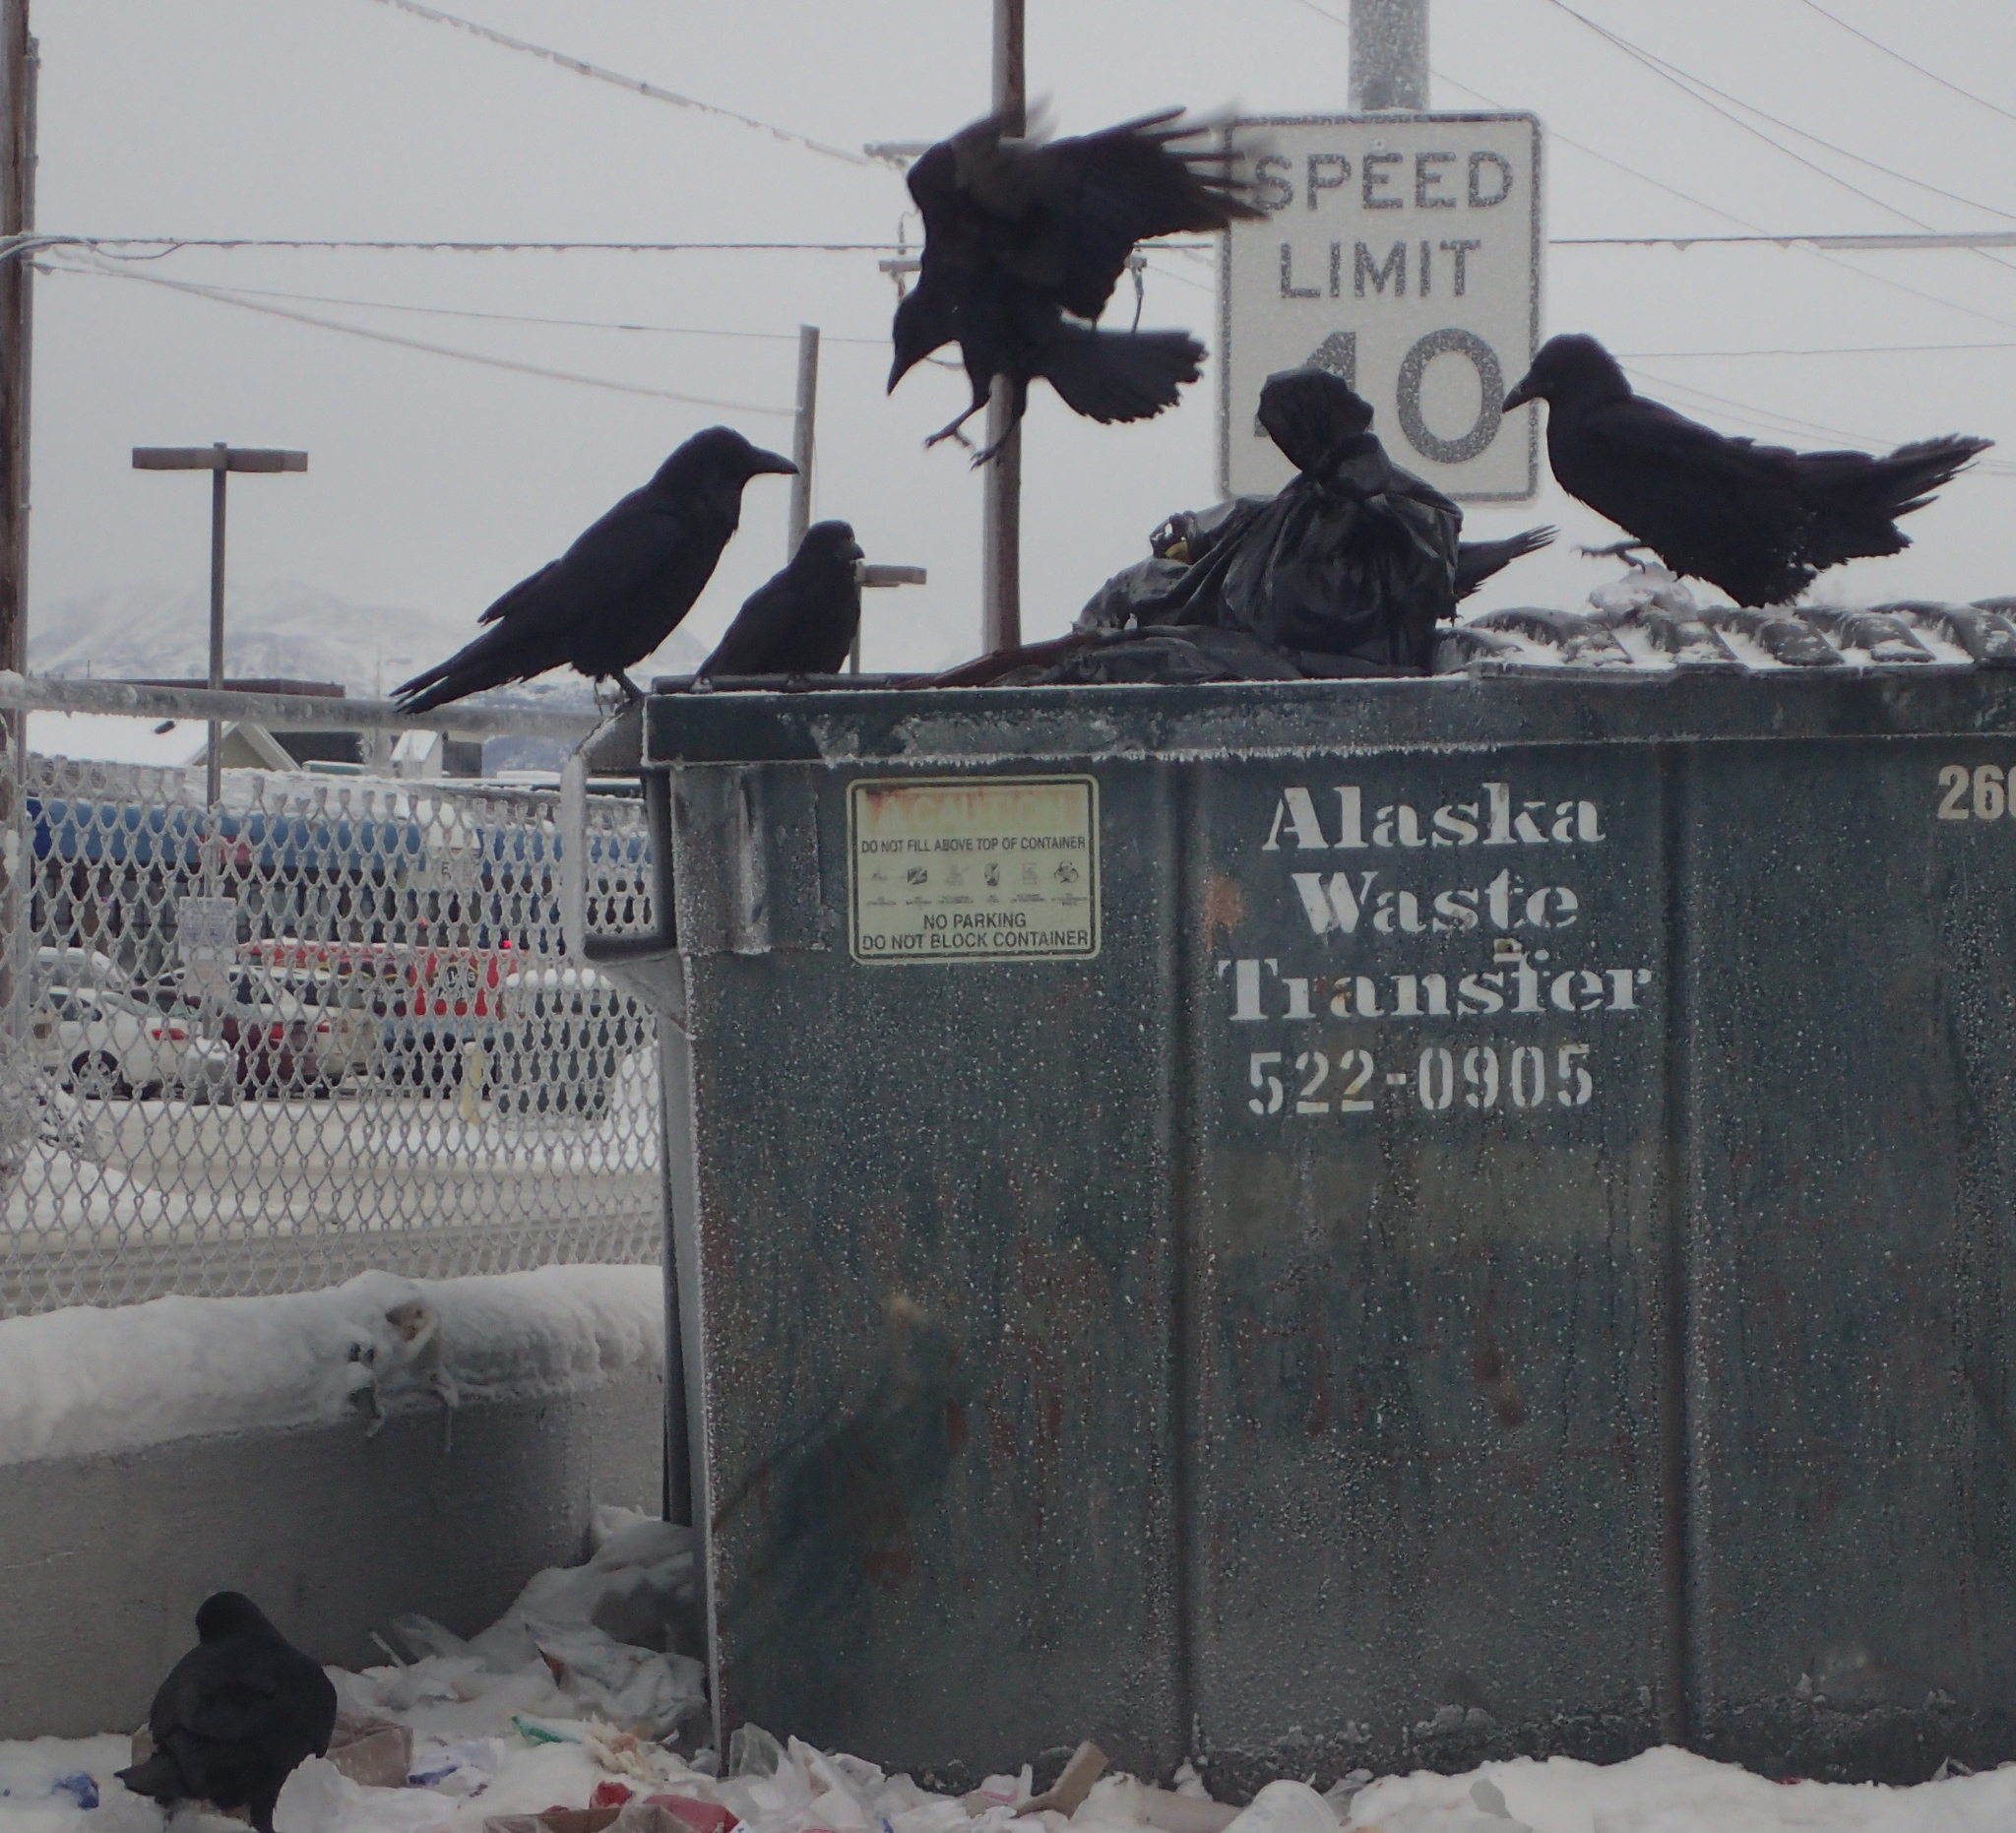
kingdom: Animalia
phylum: Chordata
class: Aves
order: Passeriformes
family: Corvidae
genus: Corvus
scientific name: Corvus corax
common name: Common raven
